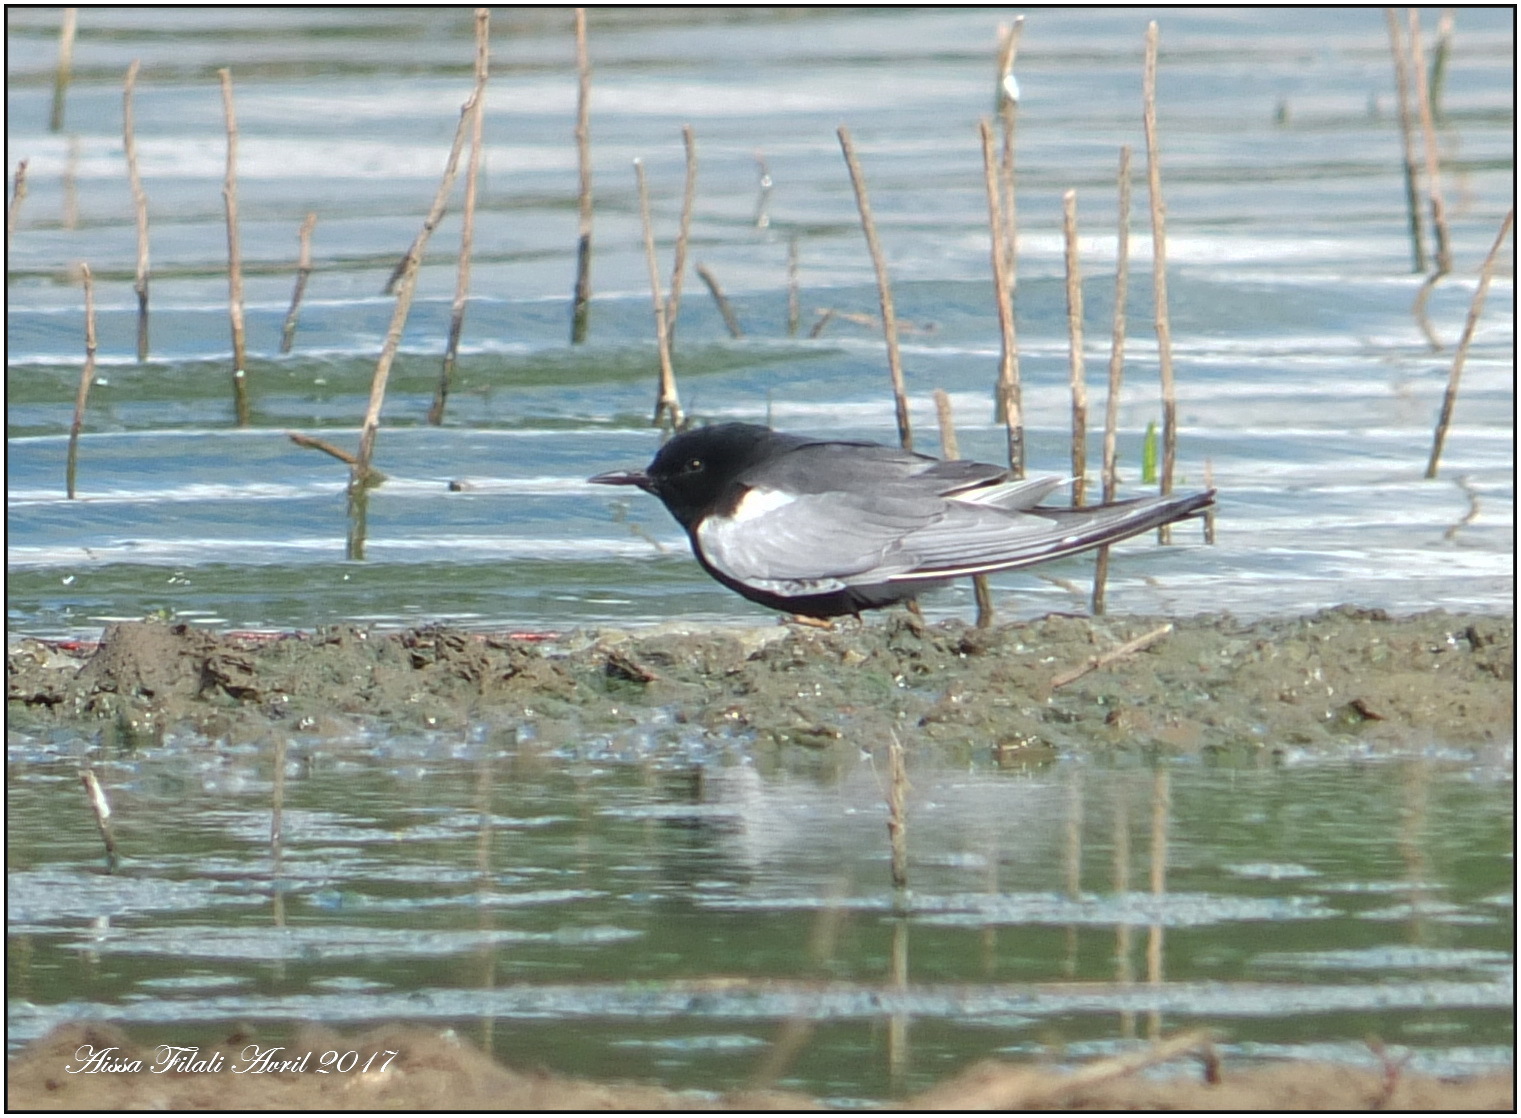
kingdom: Animalia
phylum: Chordata
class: Aves
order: Charadriiformes
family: Laridae
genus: Chlidonias
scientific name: Chlidonias leucopterus
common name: White-winged tern
